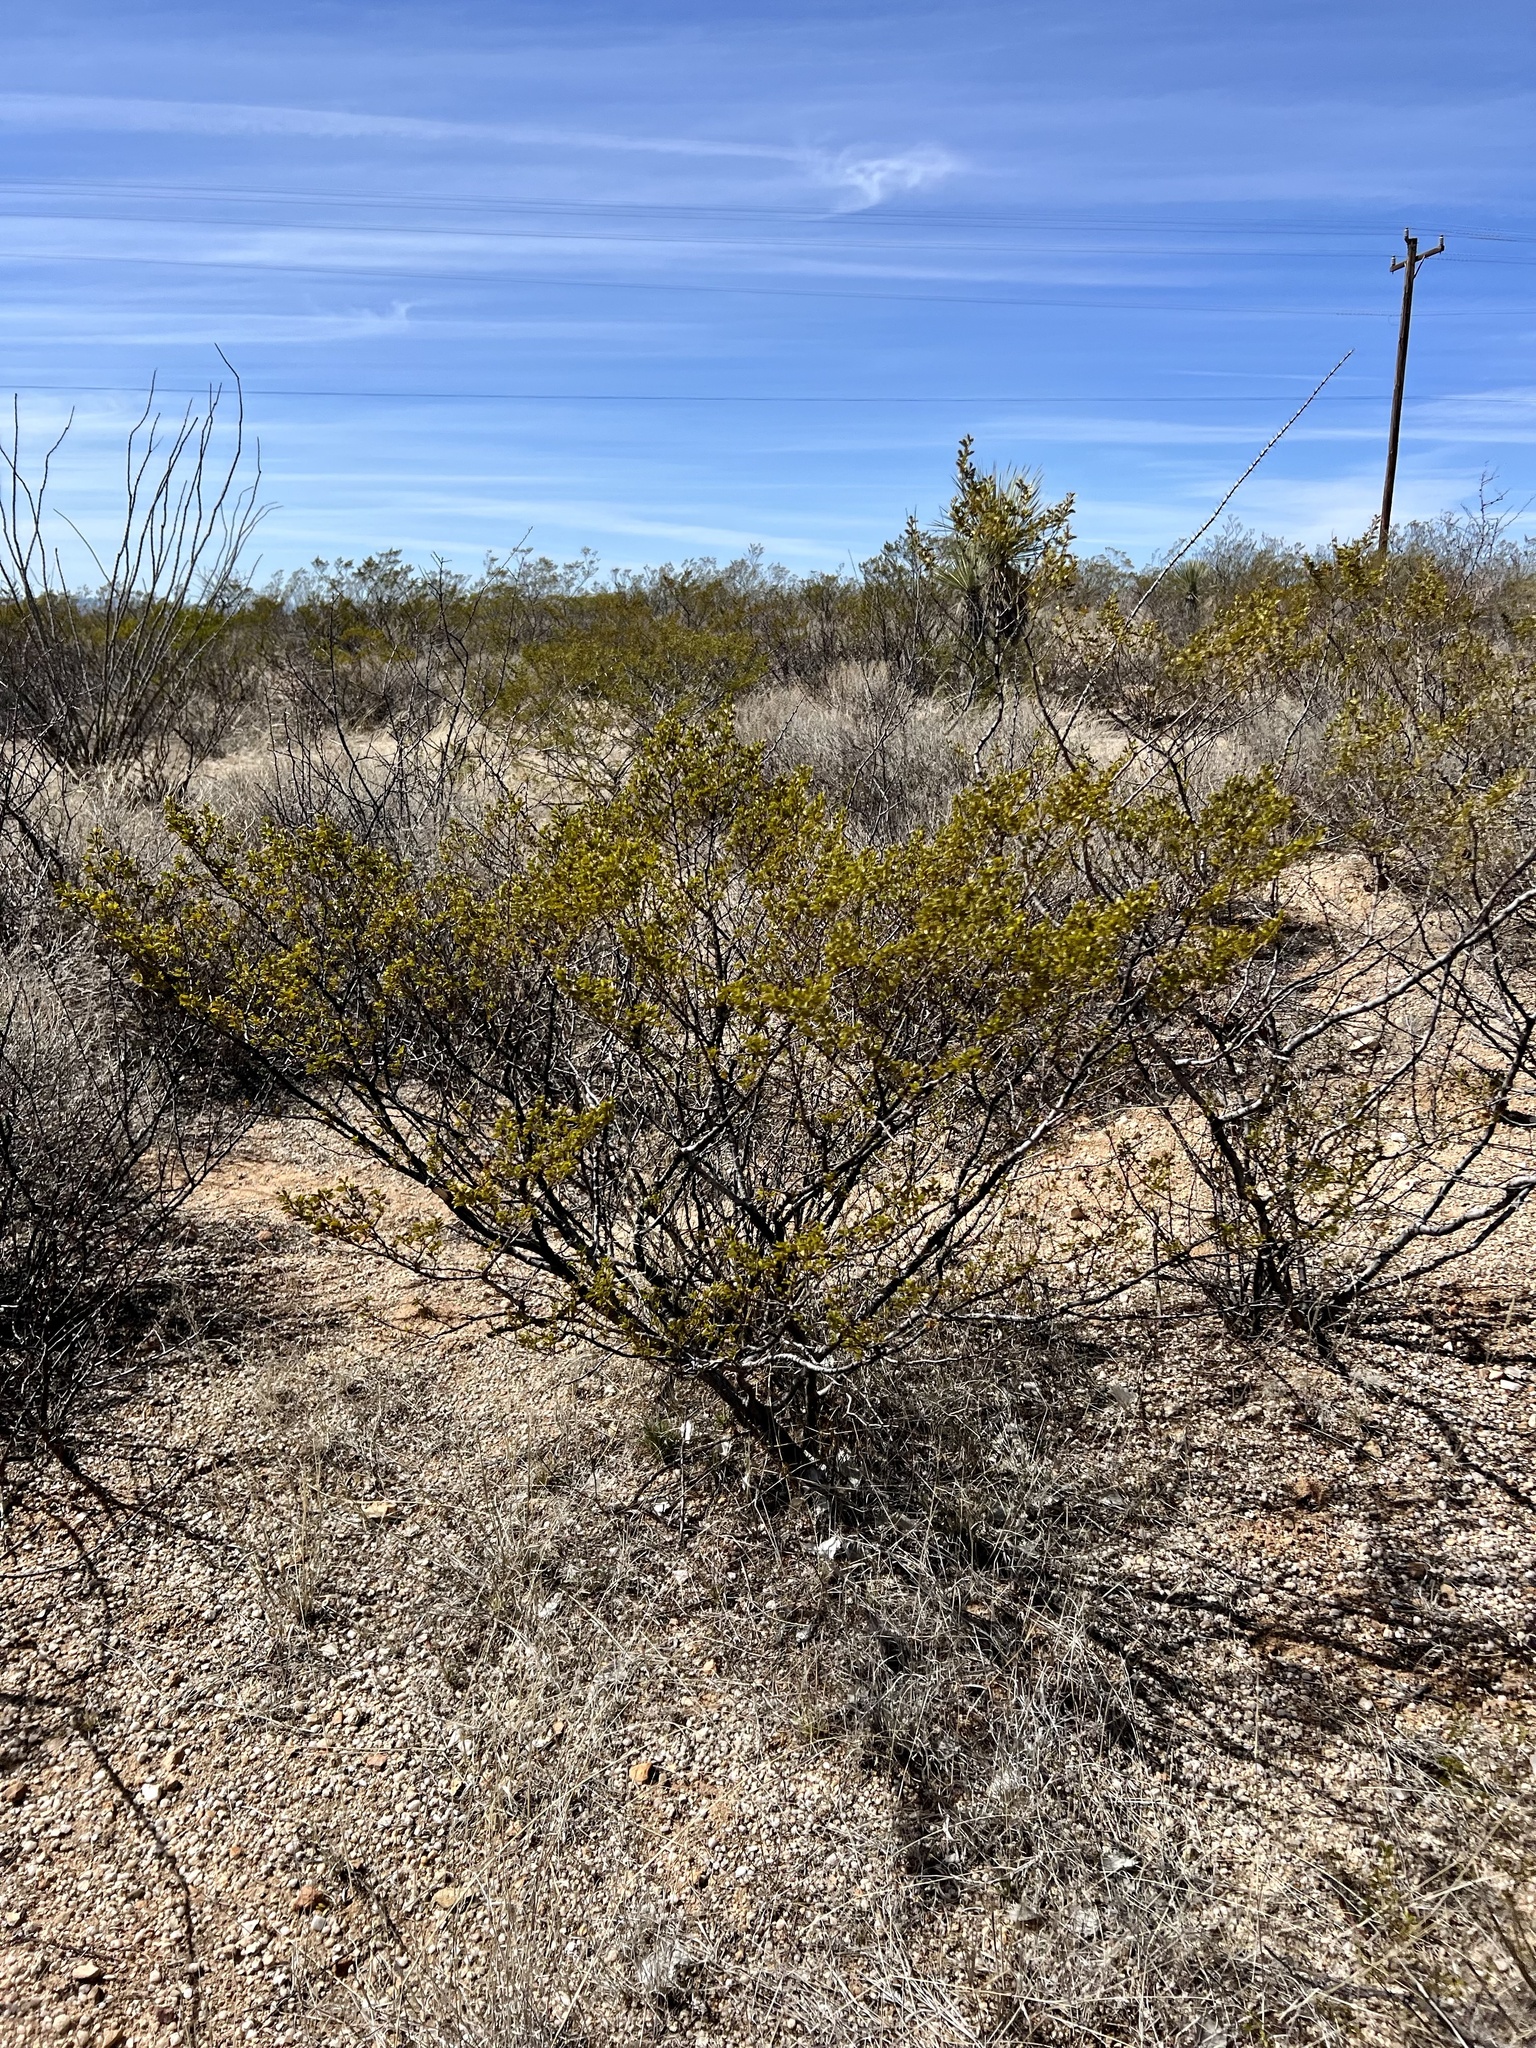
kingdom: Plantae
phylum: Tracheophyta
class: Magnoliopsida
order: Zygophyllales
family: Zygophyllaceae
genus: Larrea
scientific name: Larrea tridentata
